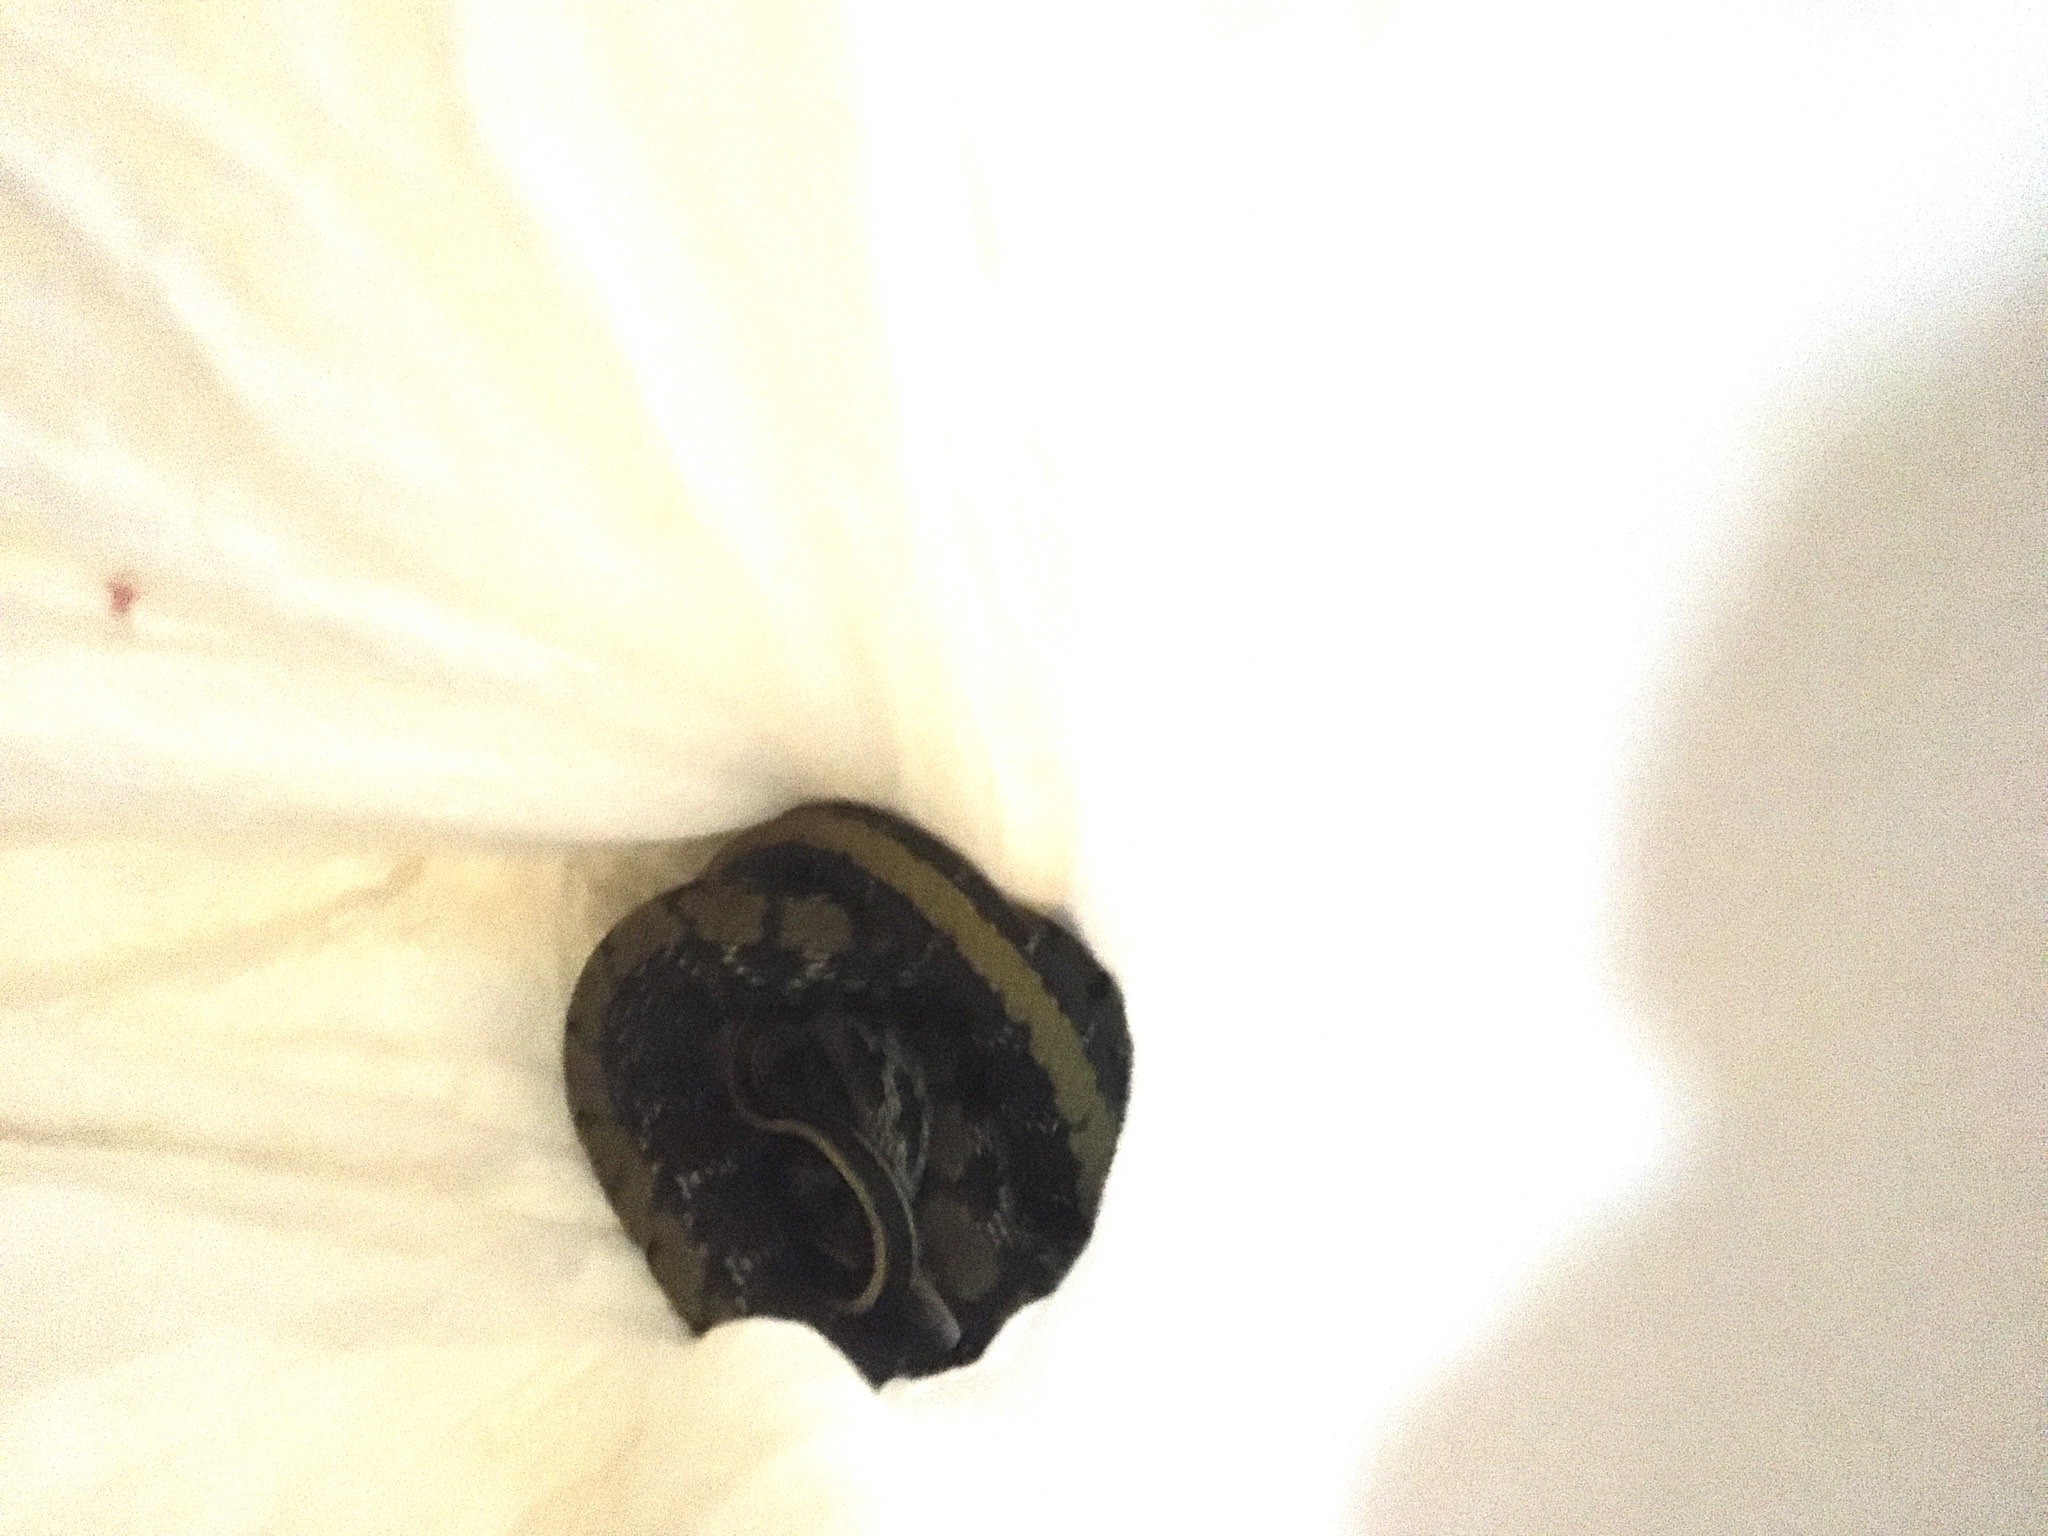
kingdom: Animalia
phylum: Chordata
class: Squamata
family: Colubridae
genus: Elaphe
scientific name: Elaphe taeniura
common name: Beauty snake
